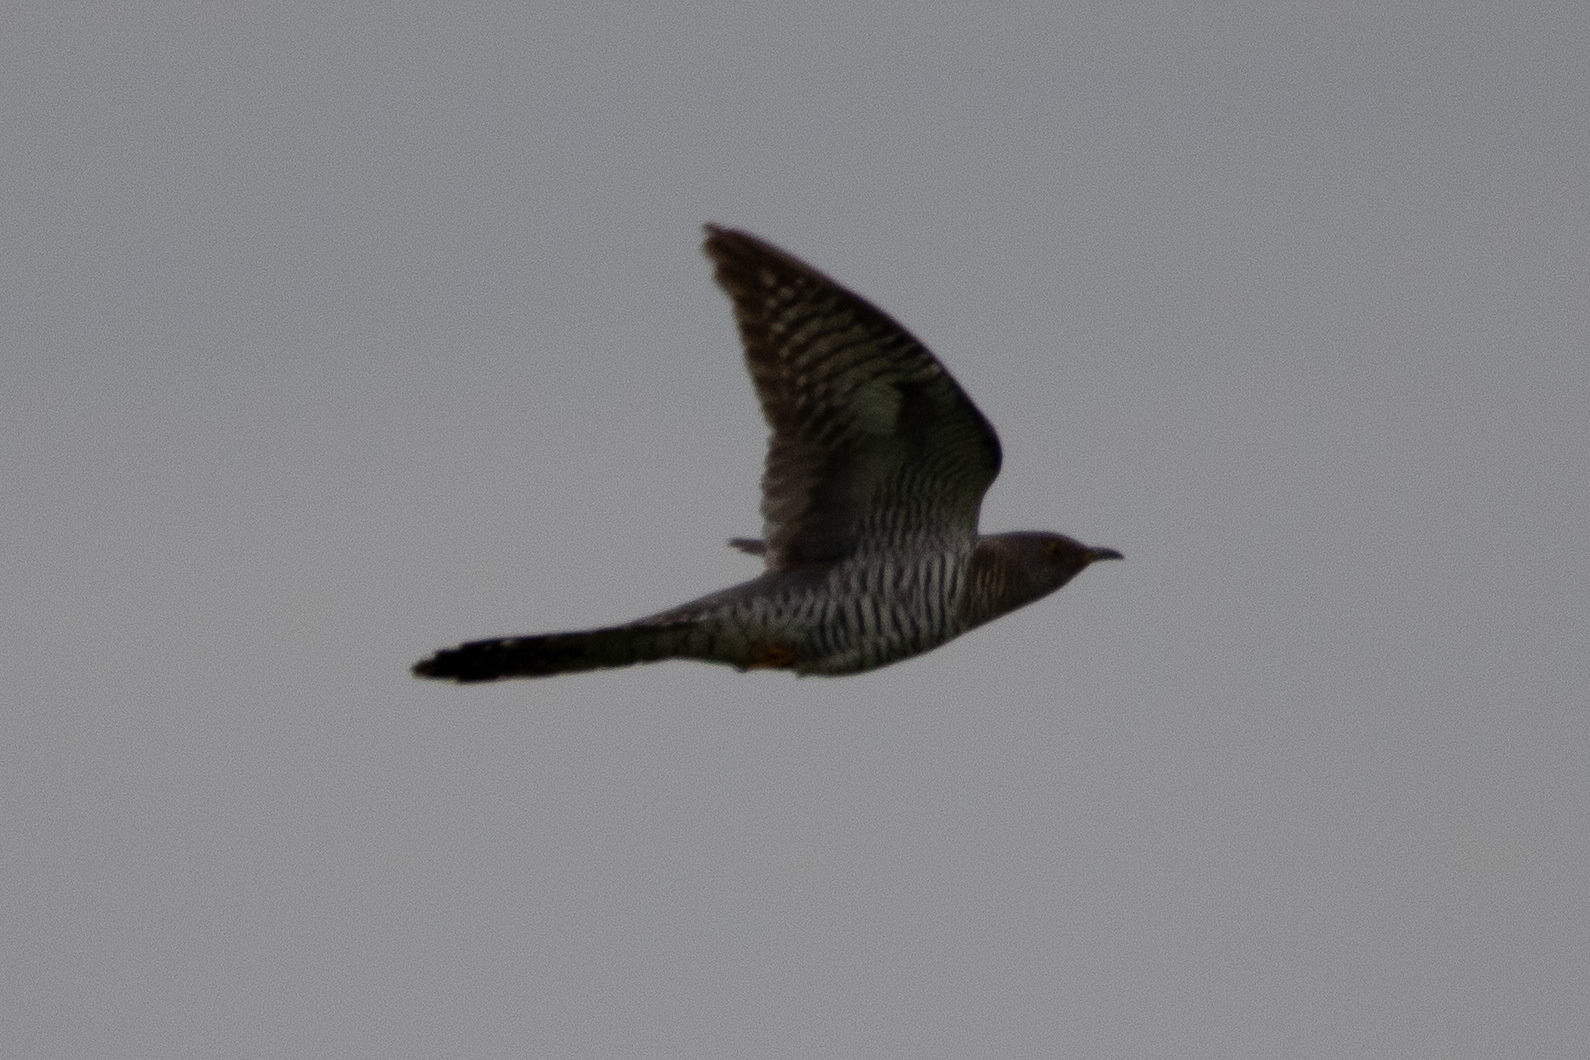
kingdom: Animalia
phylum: Chordata
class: Aves
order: Cuculiformes
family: Cuculidae
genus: Cuculus
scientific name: Cuculus canorus
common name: Common cuckoo
